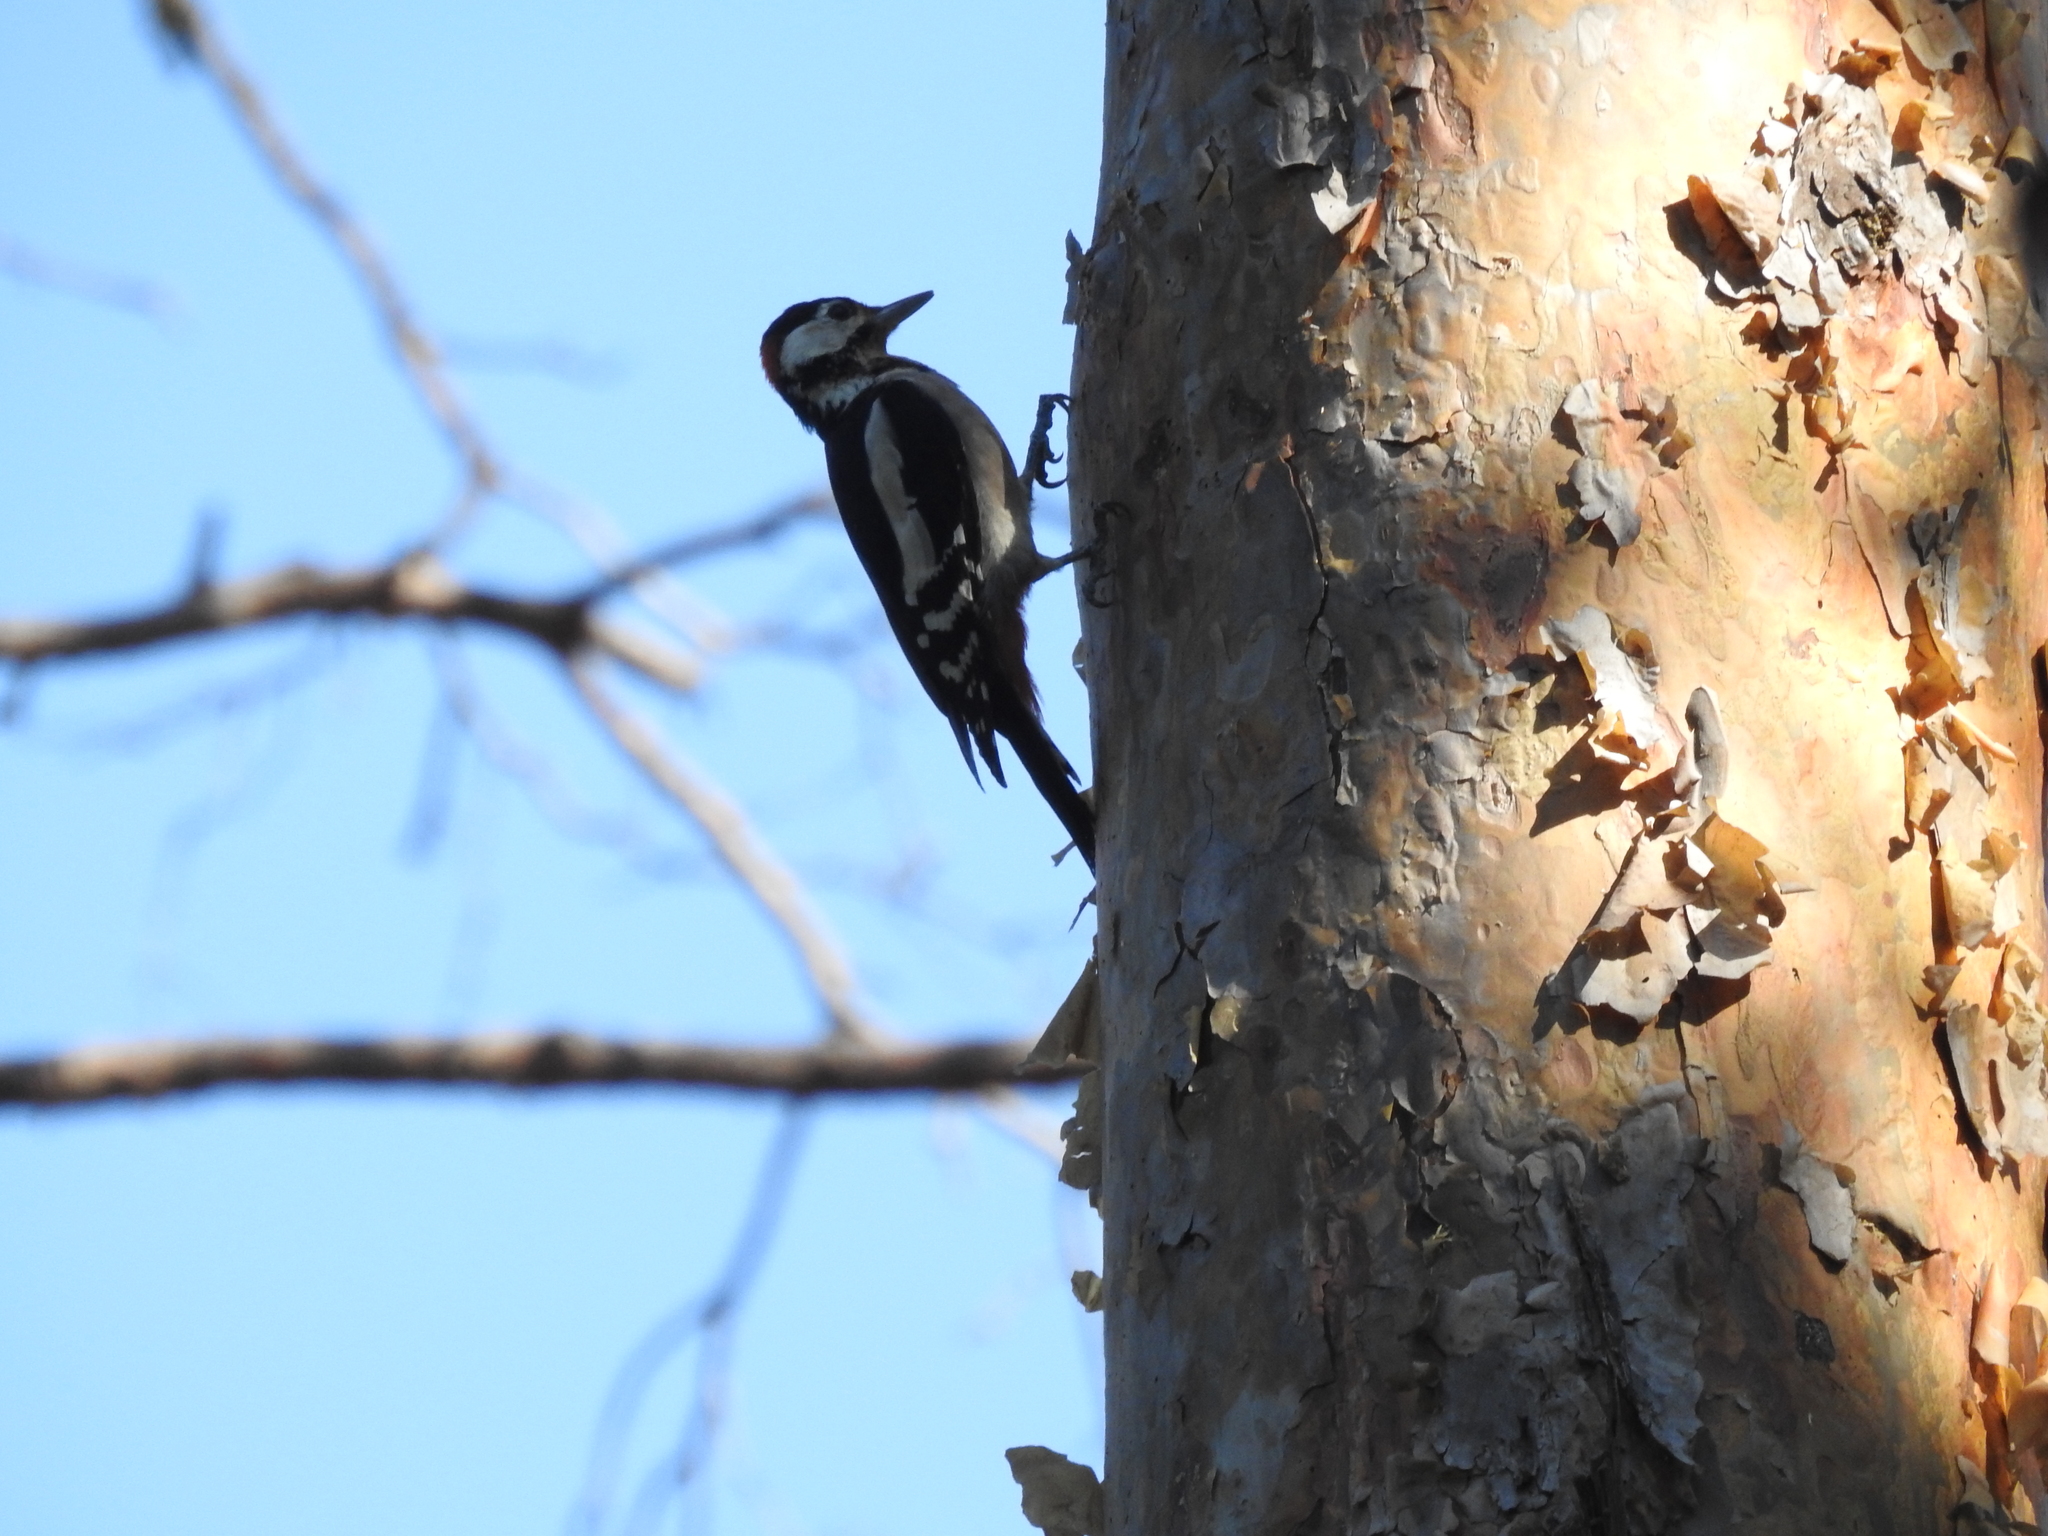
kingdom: Animalia
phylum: Chordata
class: Aves
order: Piciformes
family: Picidae
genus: Dendrocopos
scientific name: Dendrocopos major
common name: Great spotted woodpecker
